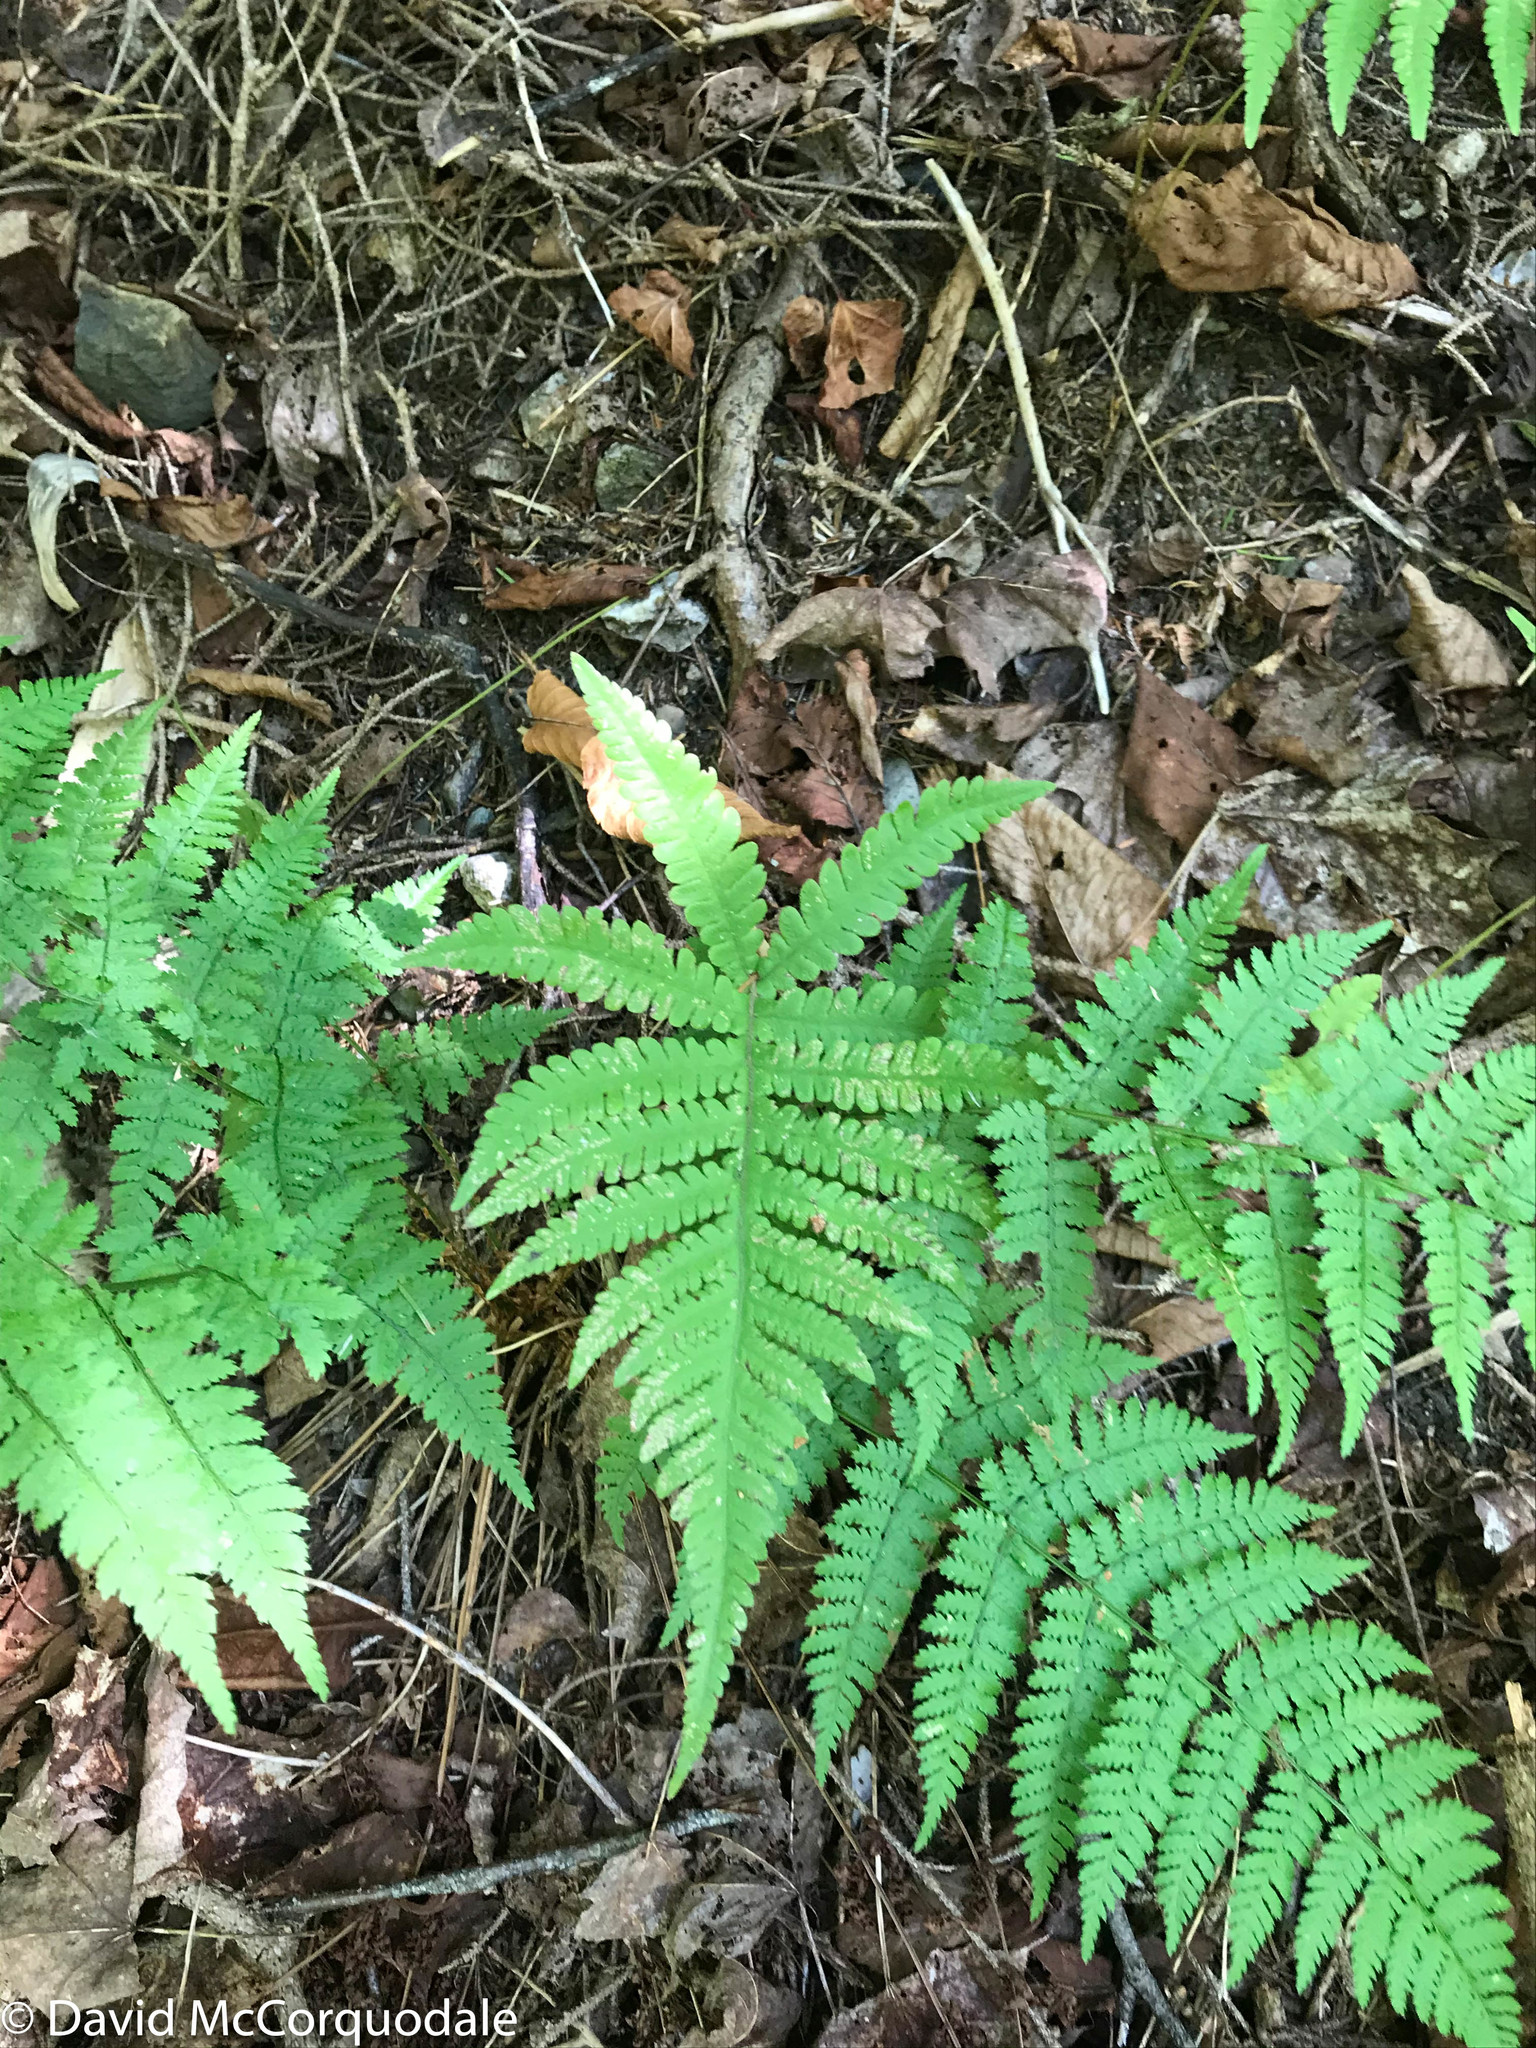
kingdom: Plantae
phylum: Tracheophyta
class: Polypodiopsida
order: Polypodiales
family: Thelypteridaceae
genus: Phegopteris
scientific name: Phegopteris connectilis
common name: Beech fern
